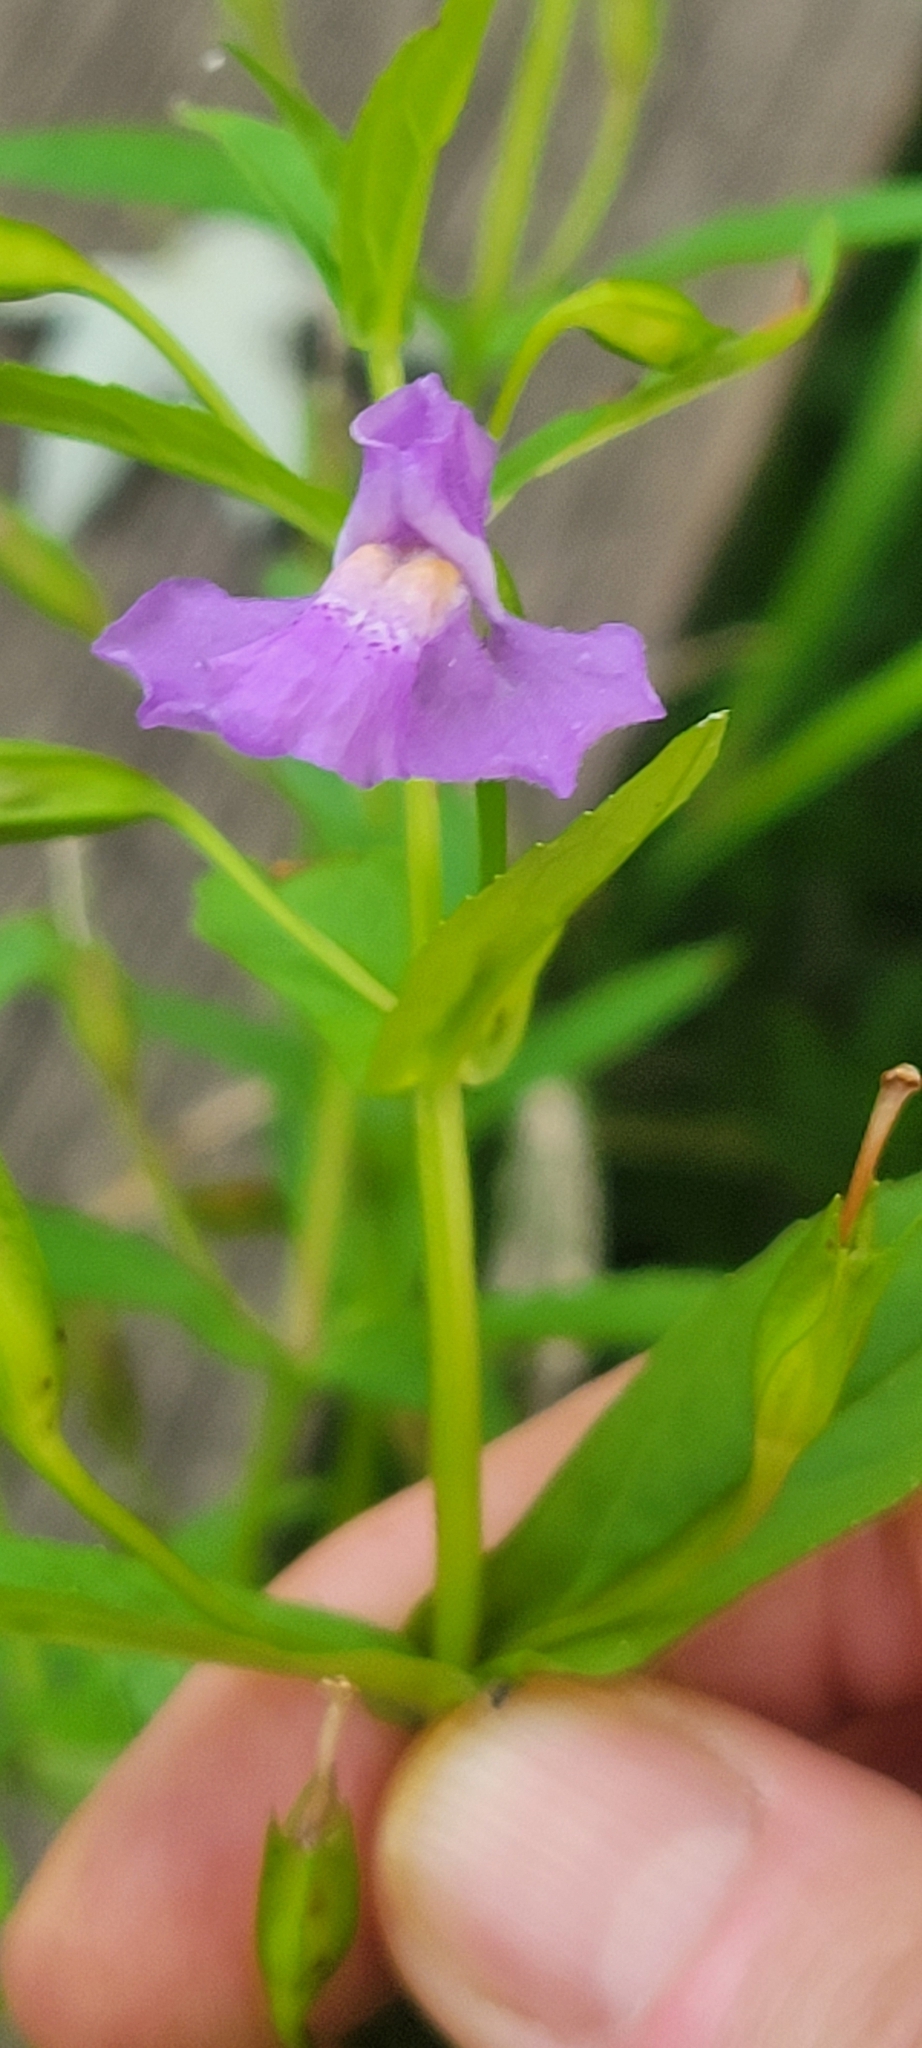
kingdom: Plantae
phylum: Tracheophyta
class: Magnoliopsida
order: Lamiales
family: Phrymaceae
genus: Mimulus
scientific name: Mimulus ringens
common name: Allegheny monkeyflower
